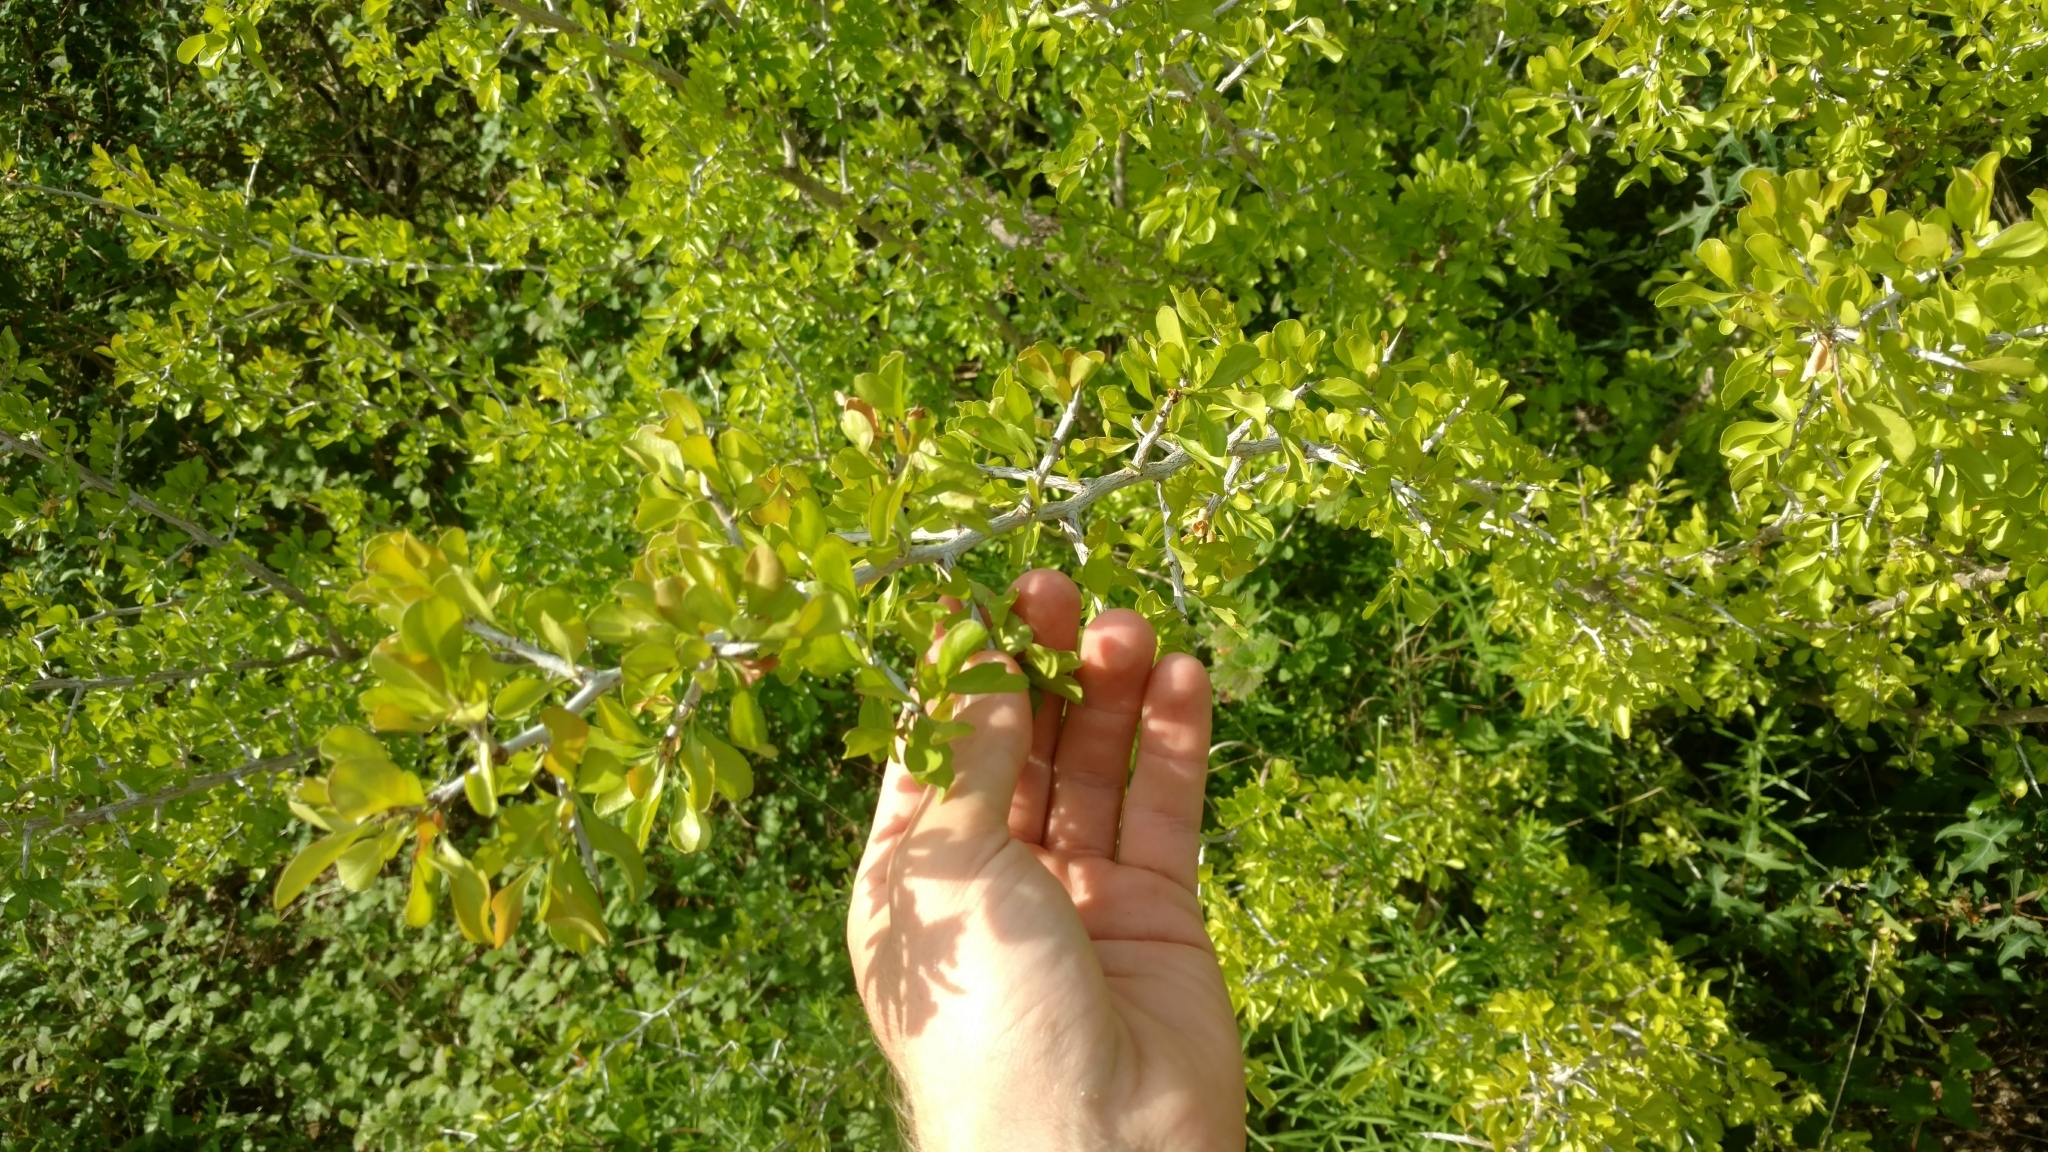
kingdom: Plantae
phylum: Tracheophyta
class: Magnoliopsida
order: Rosales
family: Rhamnaceae
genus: Condalia
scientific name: Condalia hookeri
